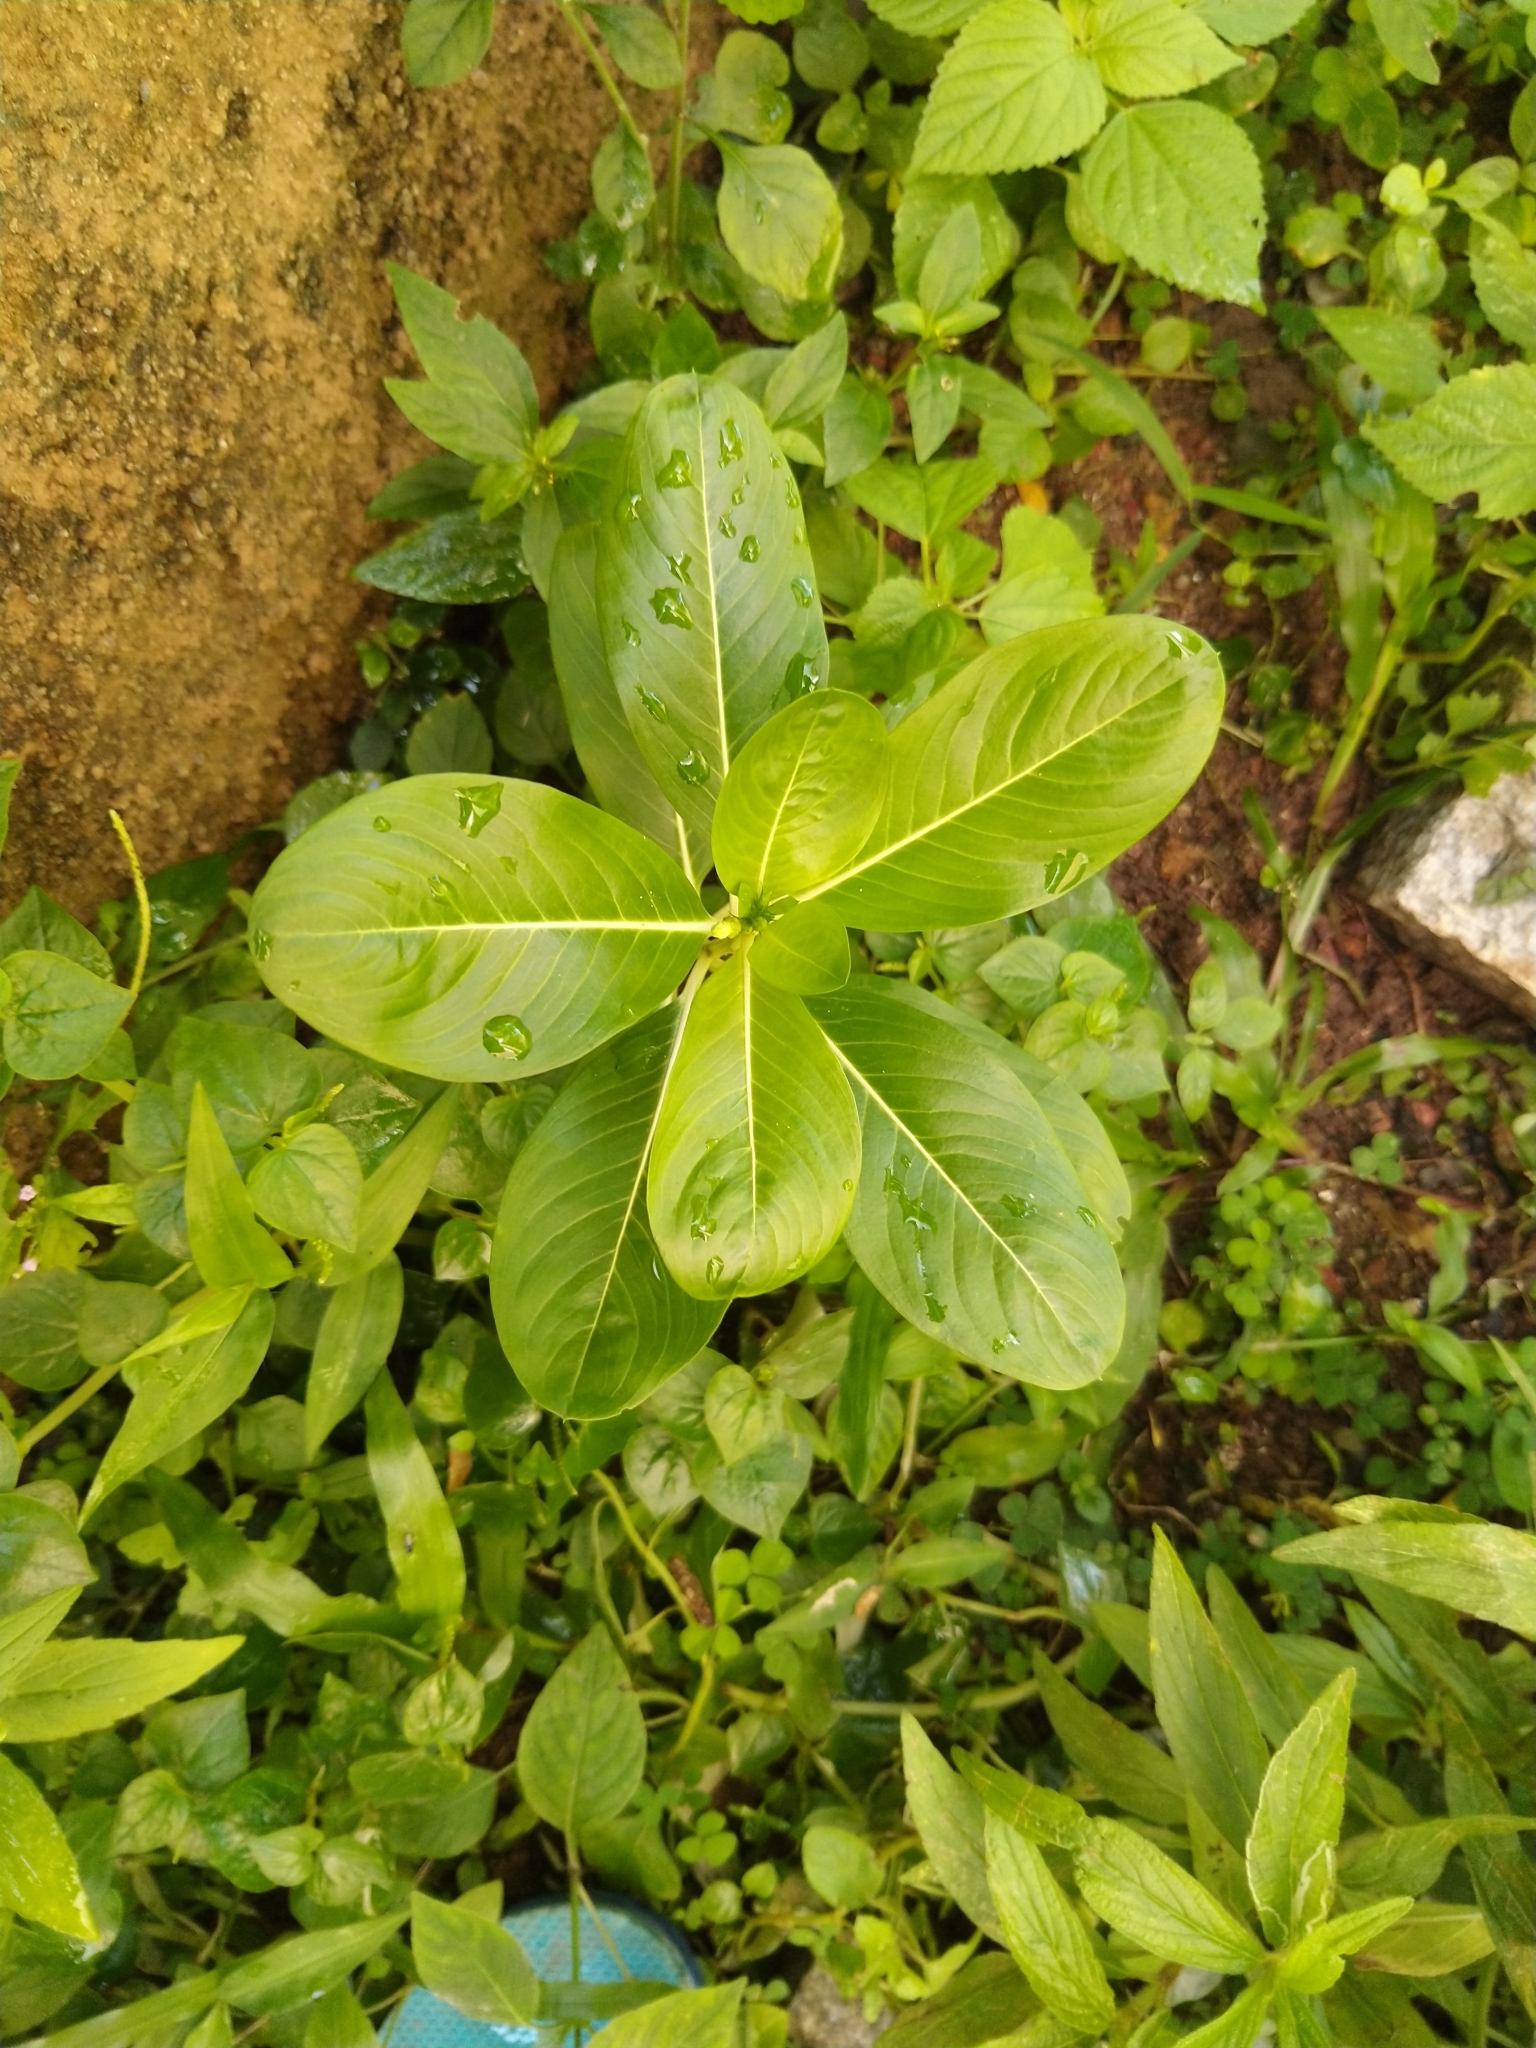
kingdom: Plantae
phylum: Tracheophyta
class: Magnoliopsida
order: Gentianales
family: Apocynaceae
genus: Catharanthus
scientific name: Catharanthus roseus
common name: Madagascar periwinkle
